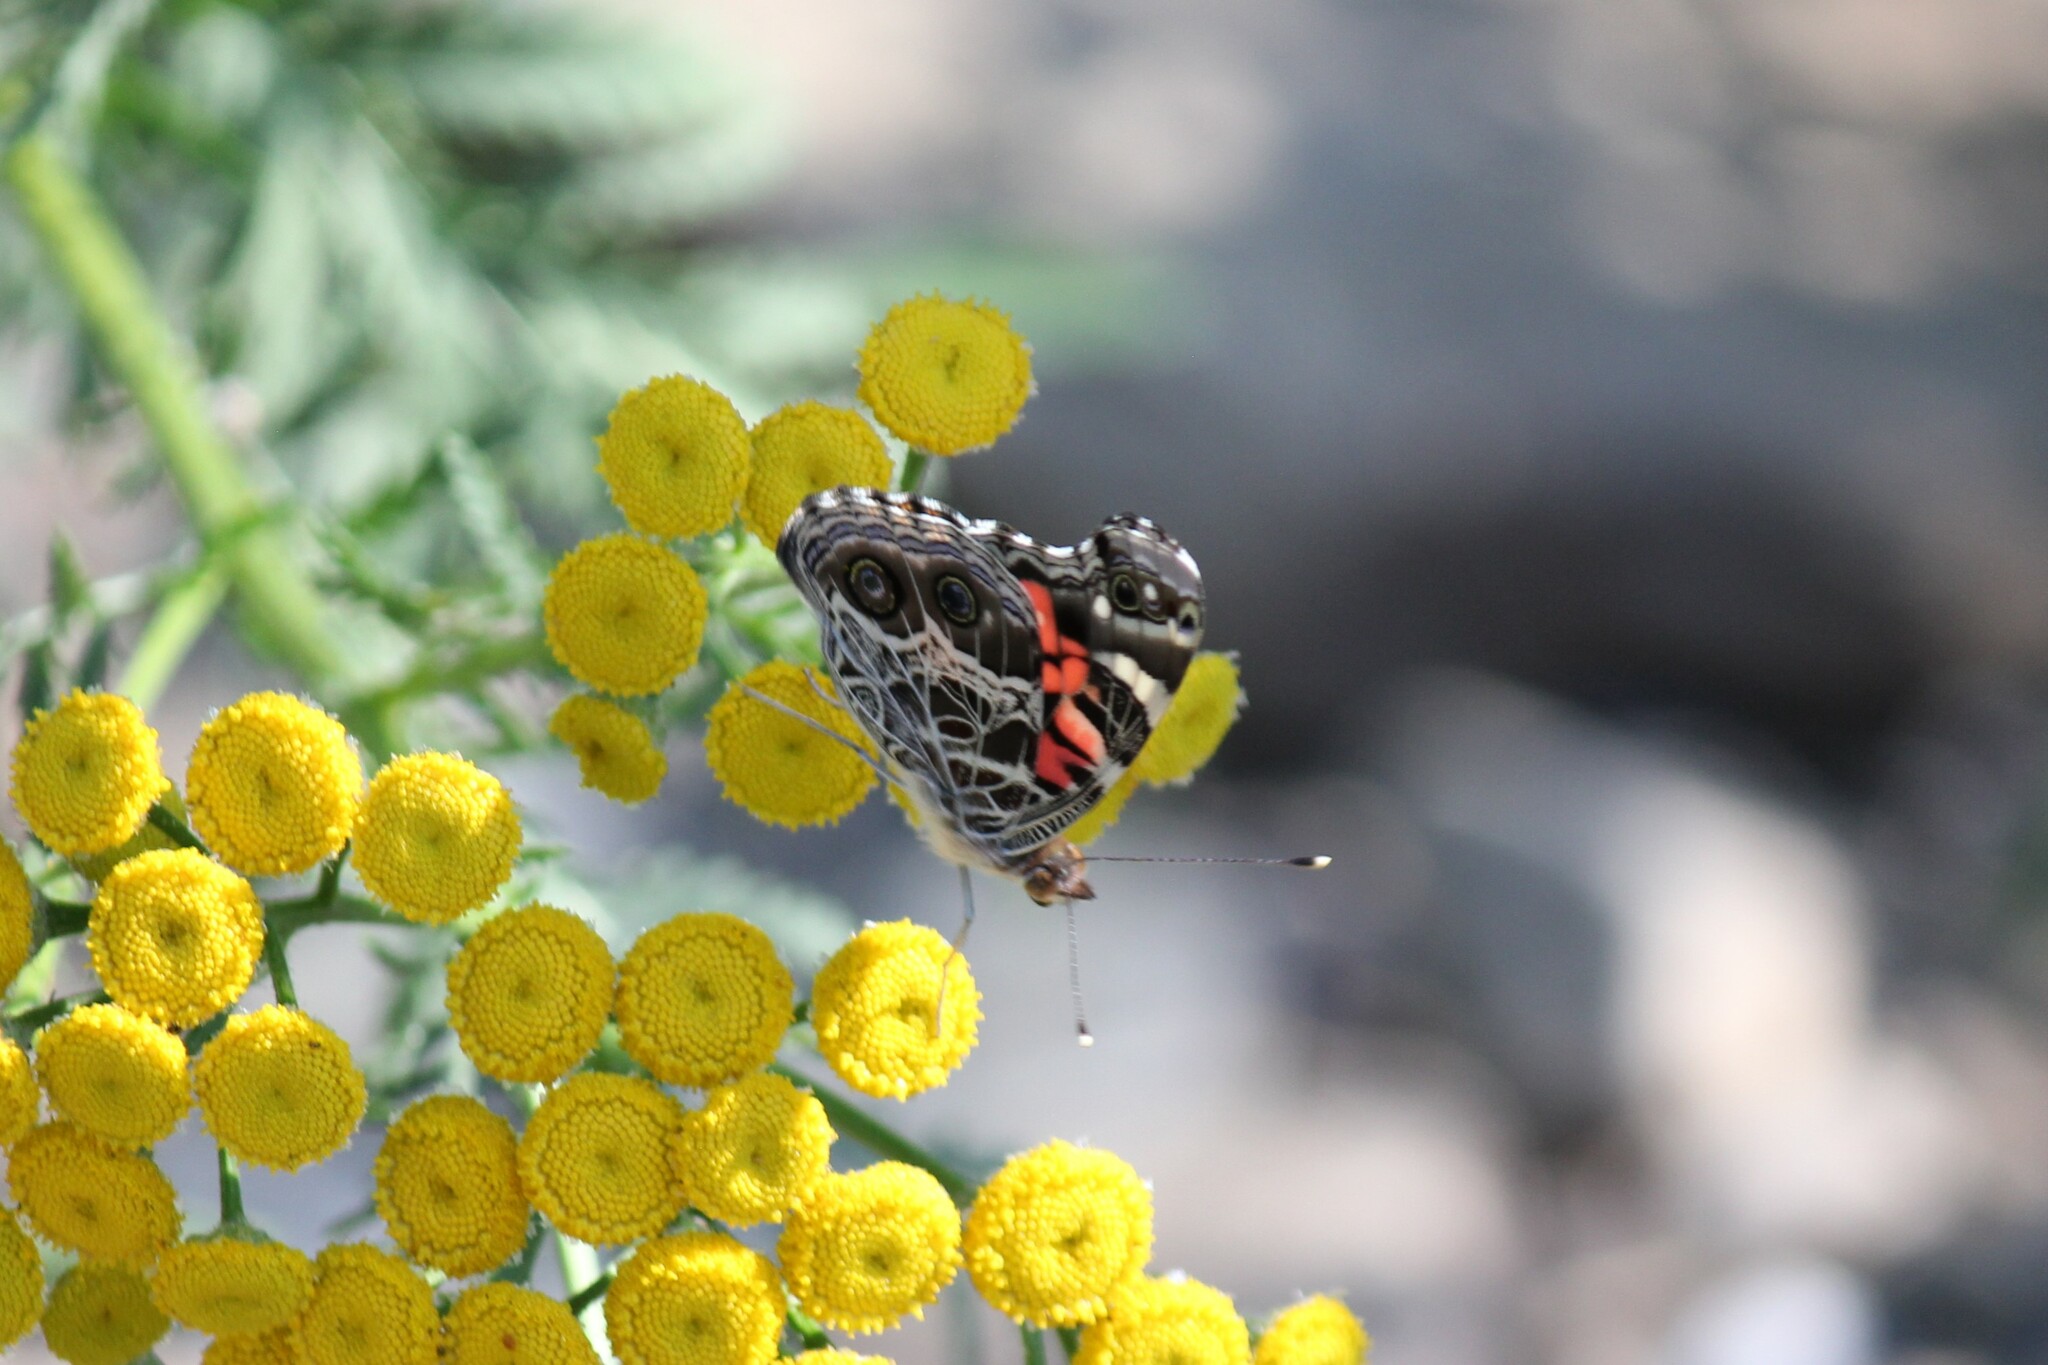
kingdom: Animalia
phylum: Arthropoda
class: Insecta
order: Lepidoptera
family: Nymphalidae
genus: Vanessa
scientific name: Vanessa virginiensis
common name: American lady
